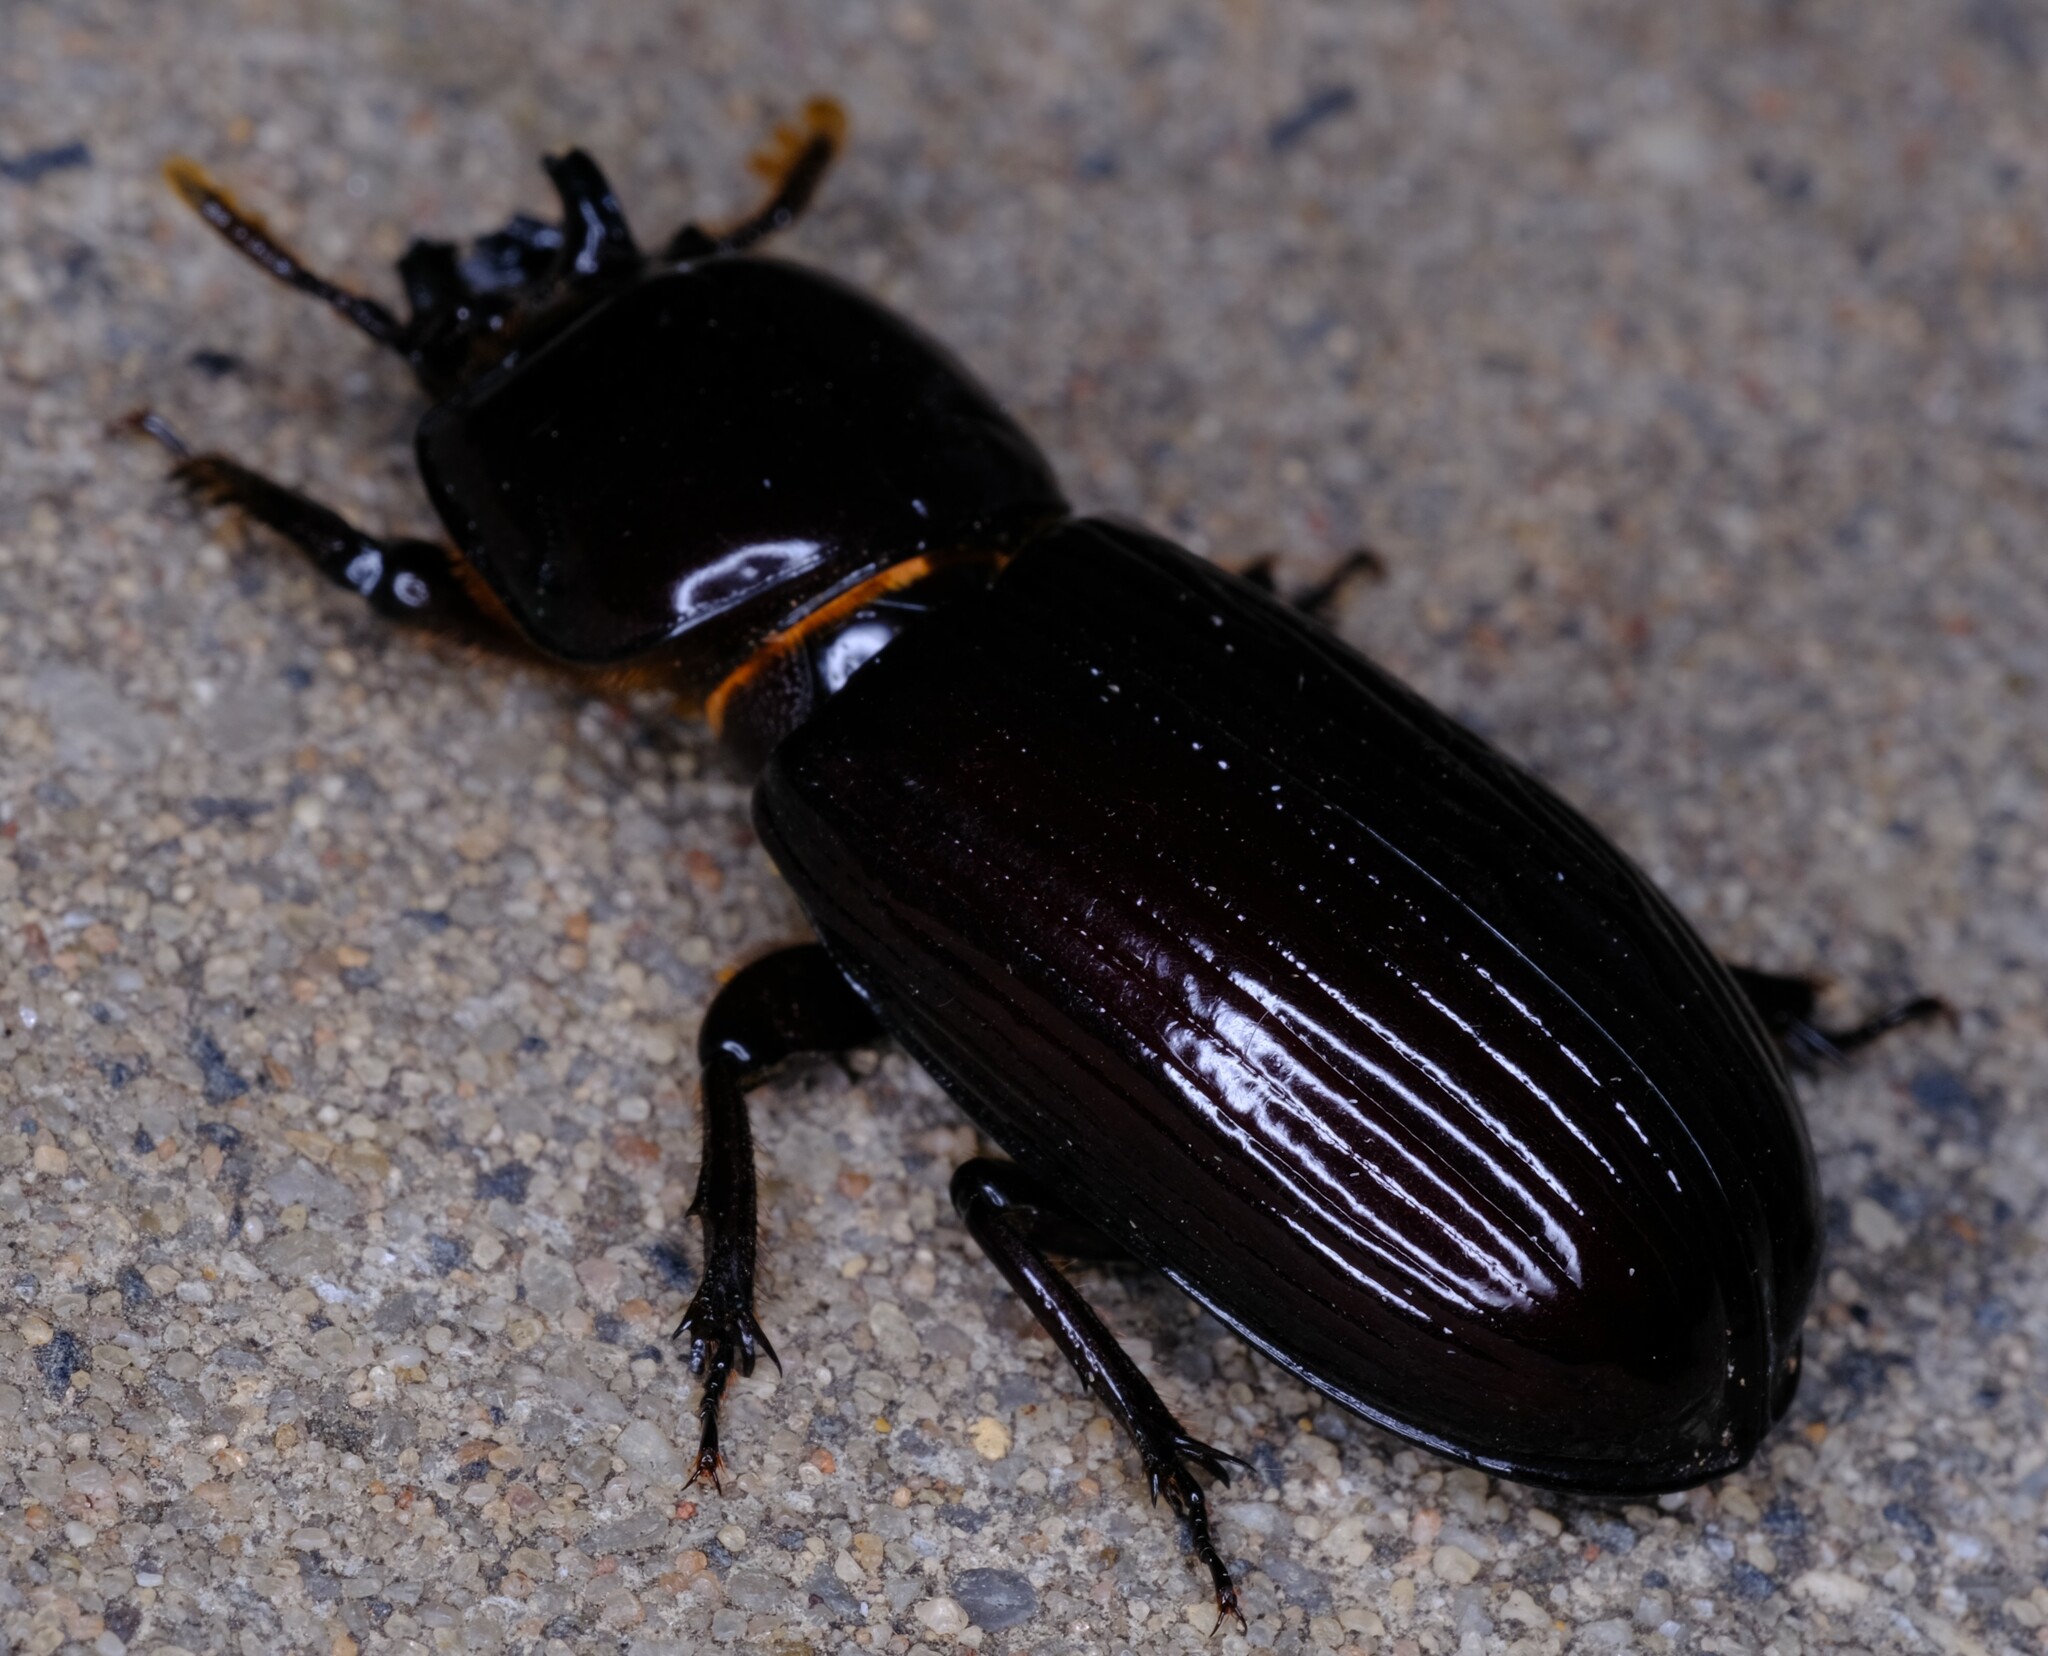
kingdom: Animalia
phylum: Arthropoda
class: Insecta
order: Coleoptera
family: Passalidae
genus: Aulacocyclus
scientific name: Aulacocyclus edentulus
